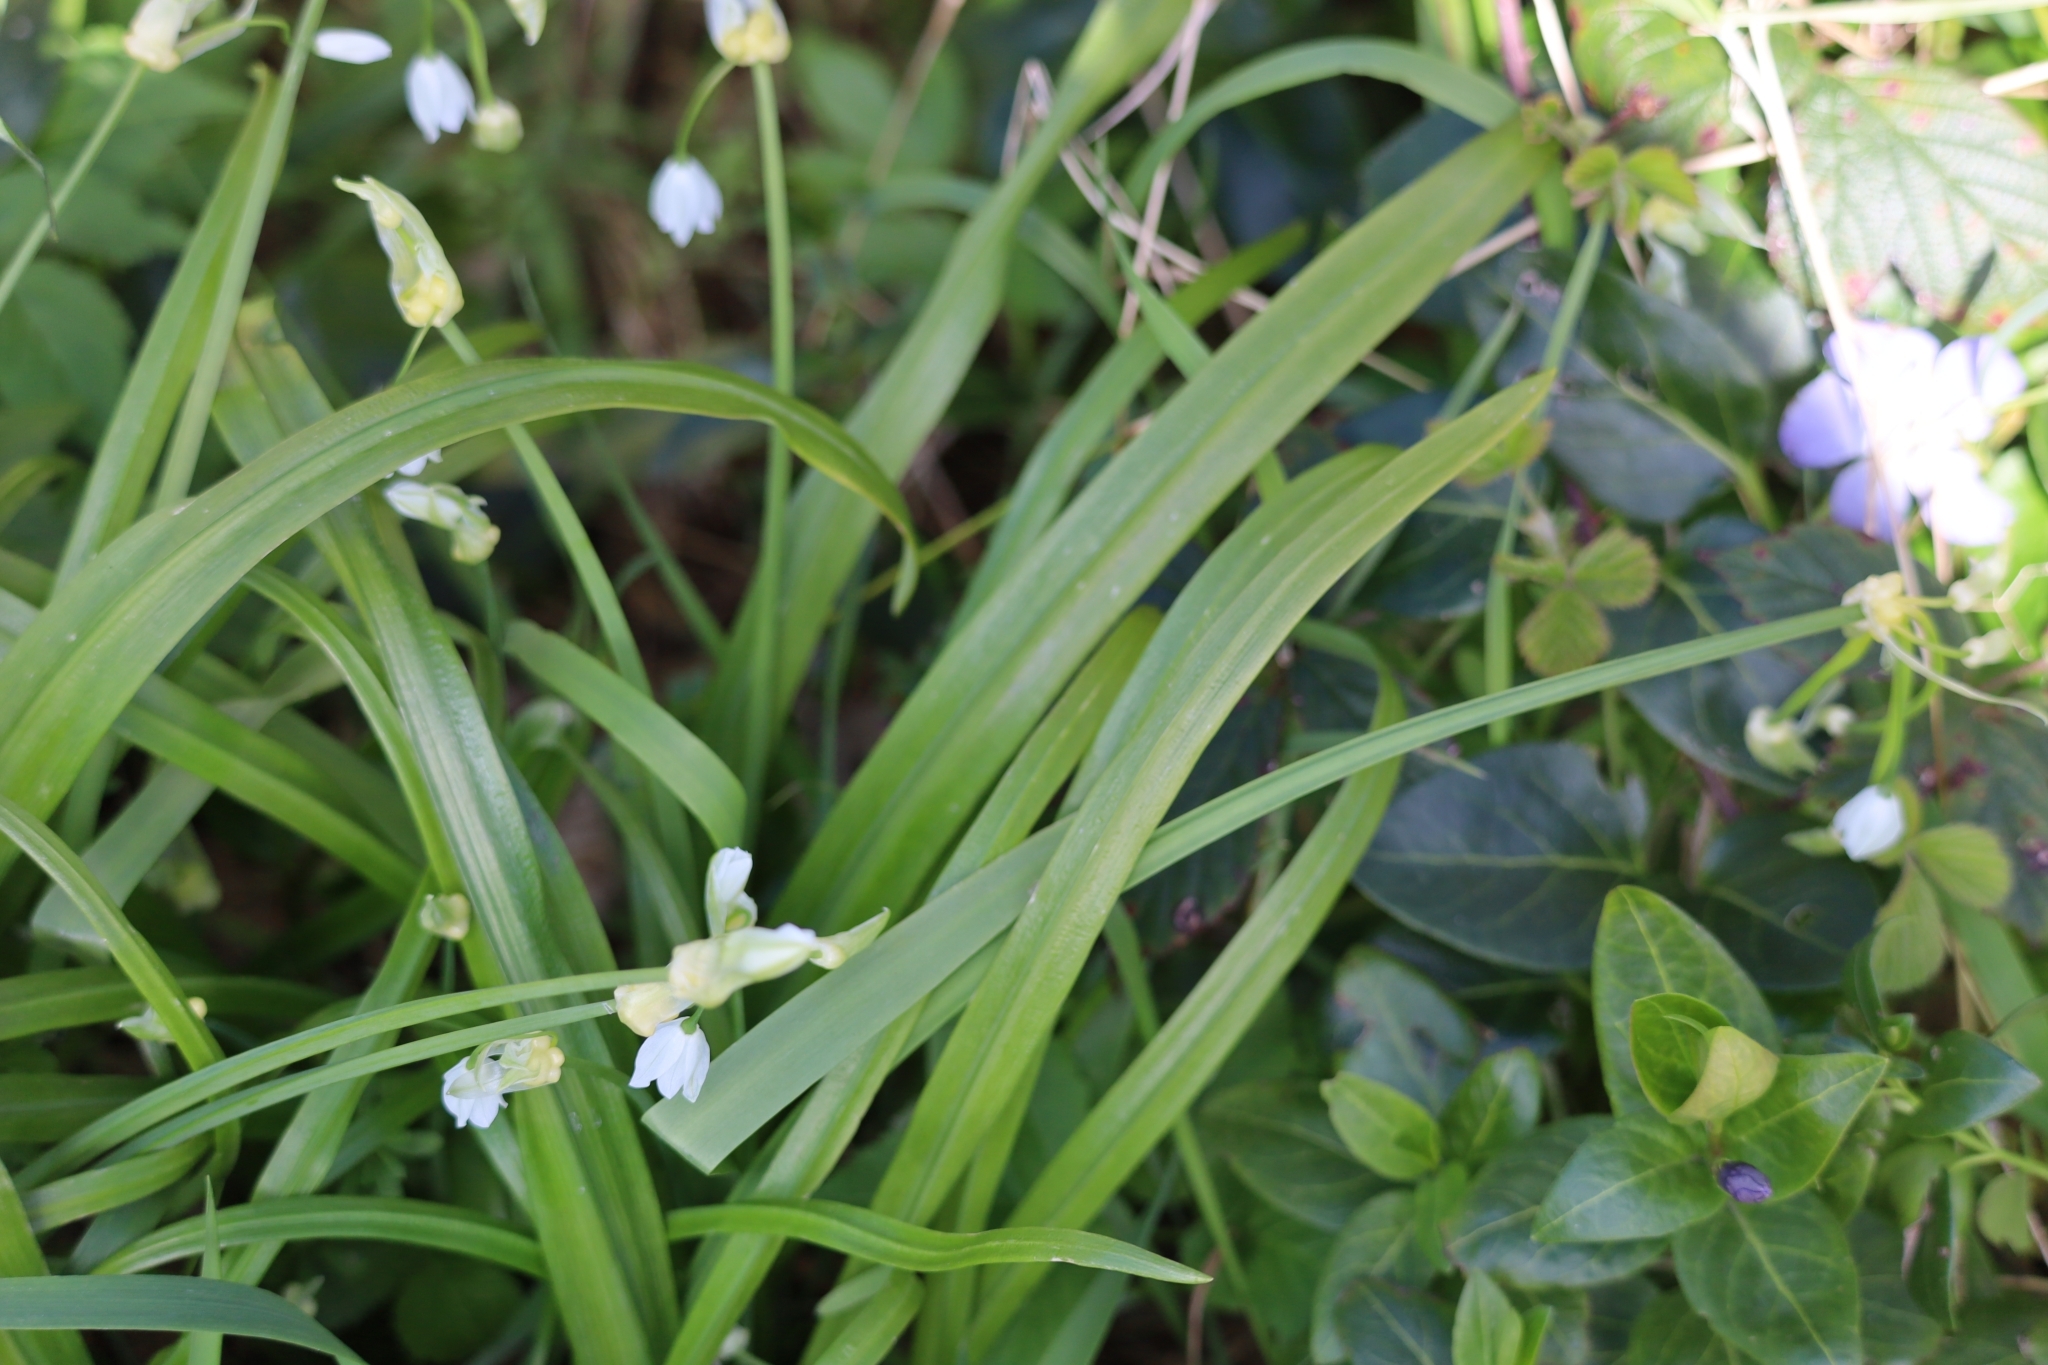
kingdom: Plantae
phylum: Tracheophyta
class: Liliopsida
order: Asparagales
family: Amaryllidaceae
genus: Allium
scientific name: Allium paradoxum
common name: Few-flowered garlic
